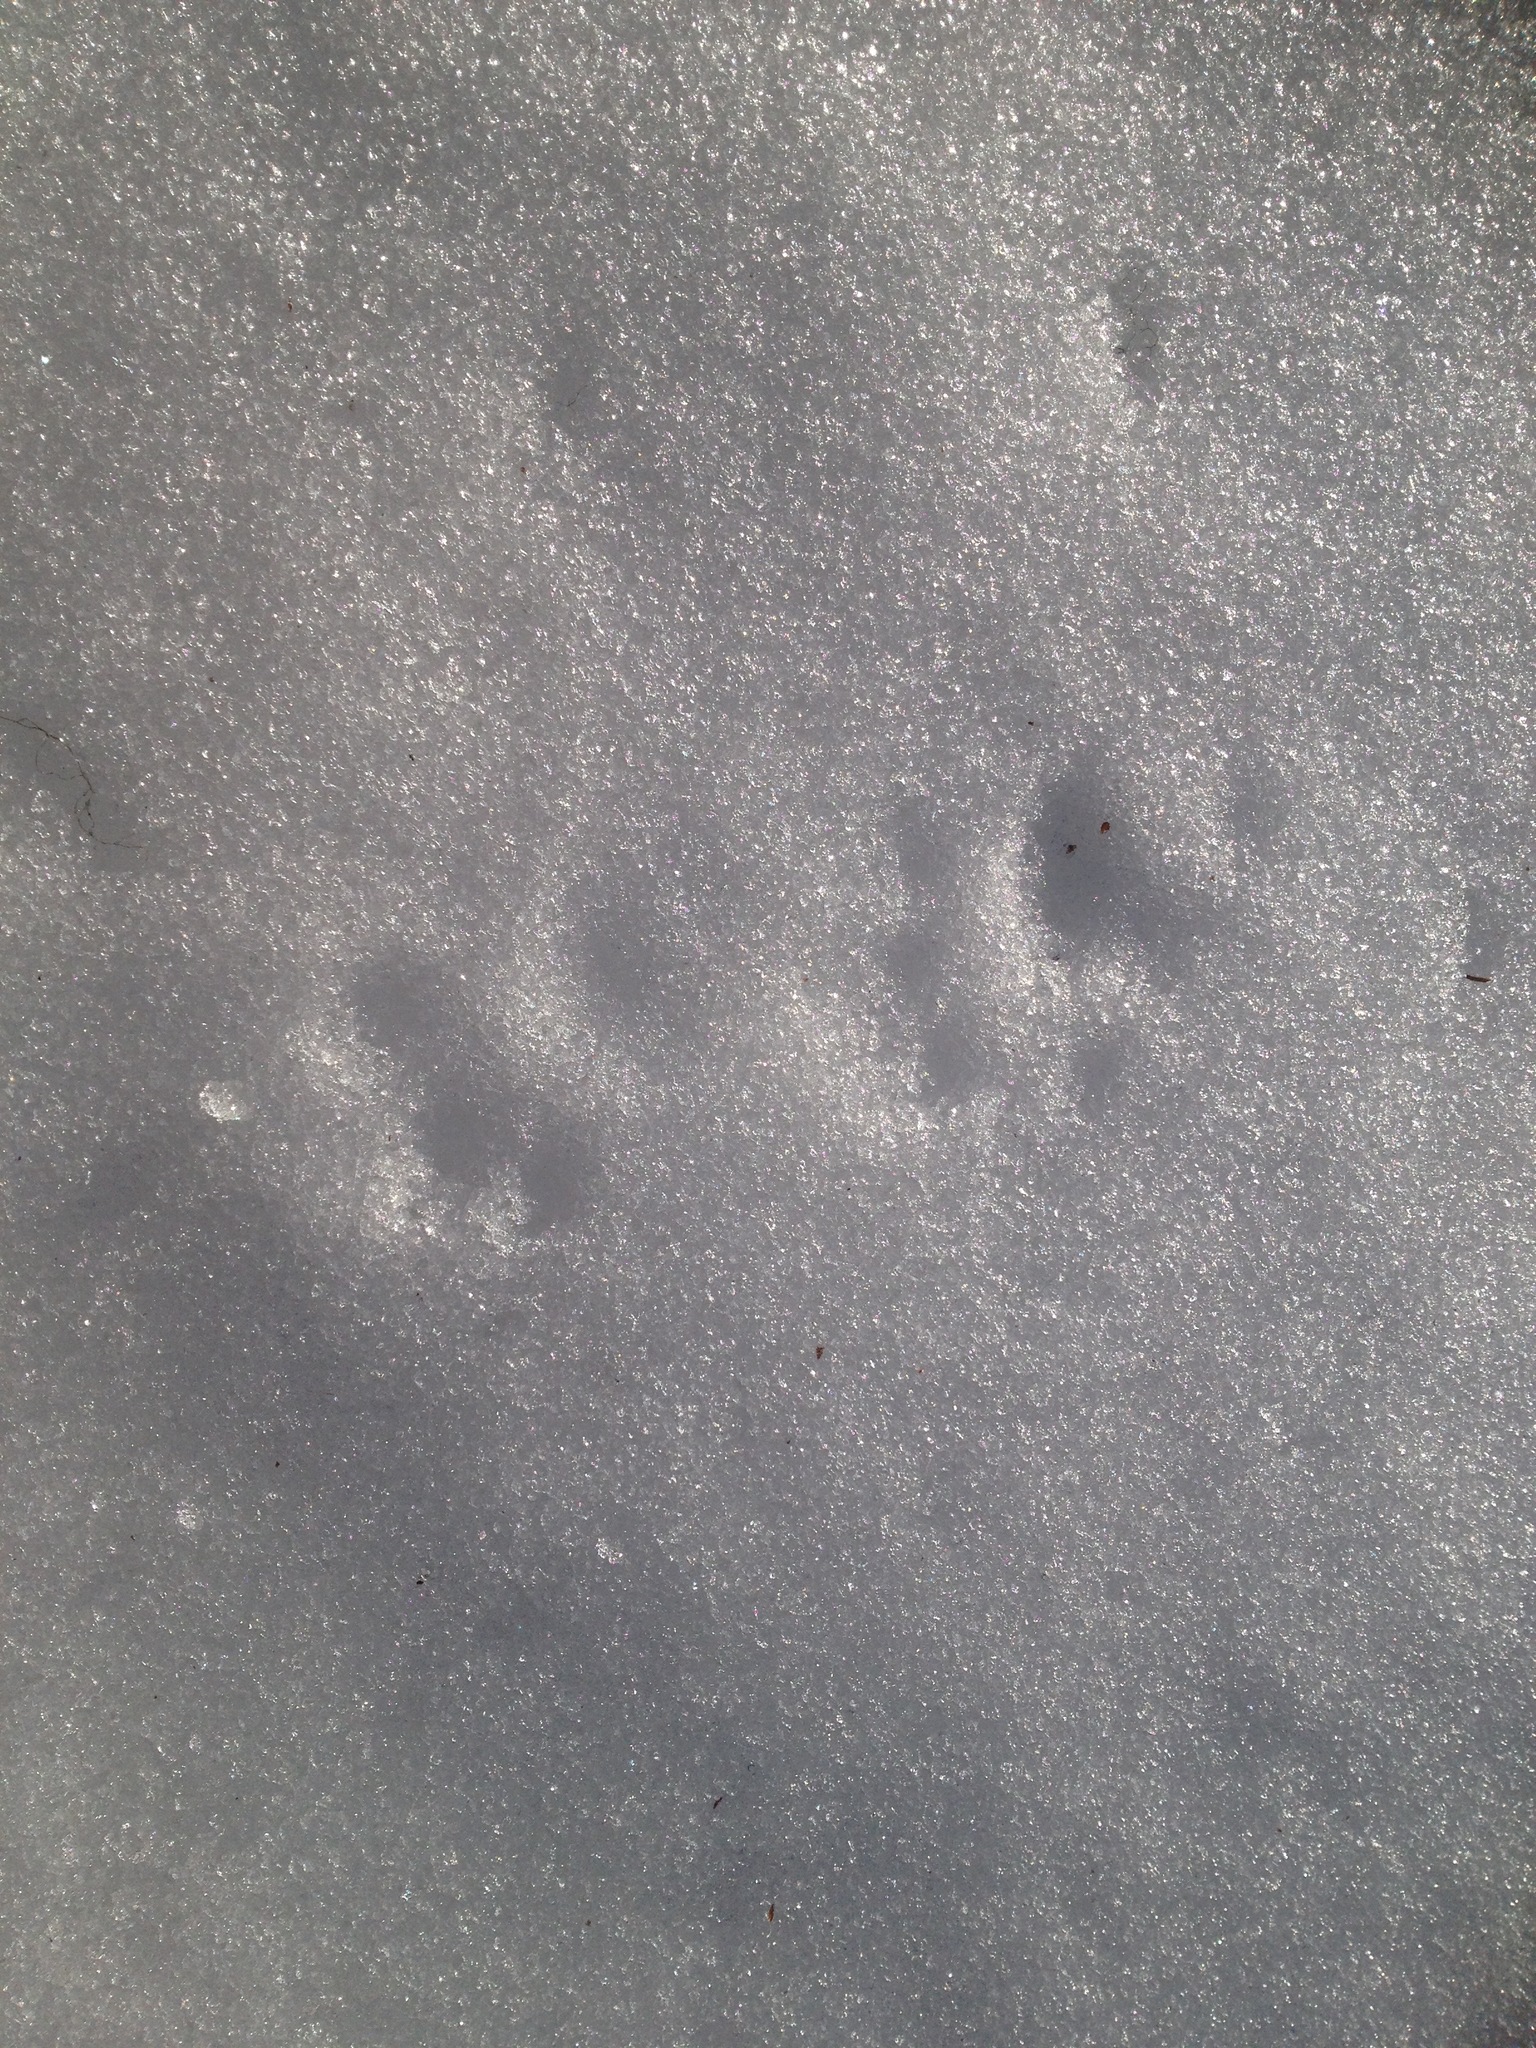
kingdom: Animalia
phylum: Chordata
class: Mammalia
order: Carnivora
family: Canidae
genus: Vulpes
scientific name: Vulpes vulpes
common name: Red fox
